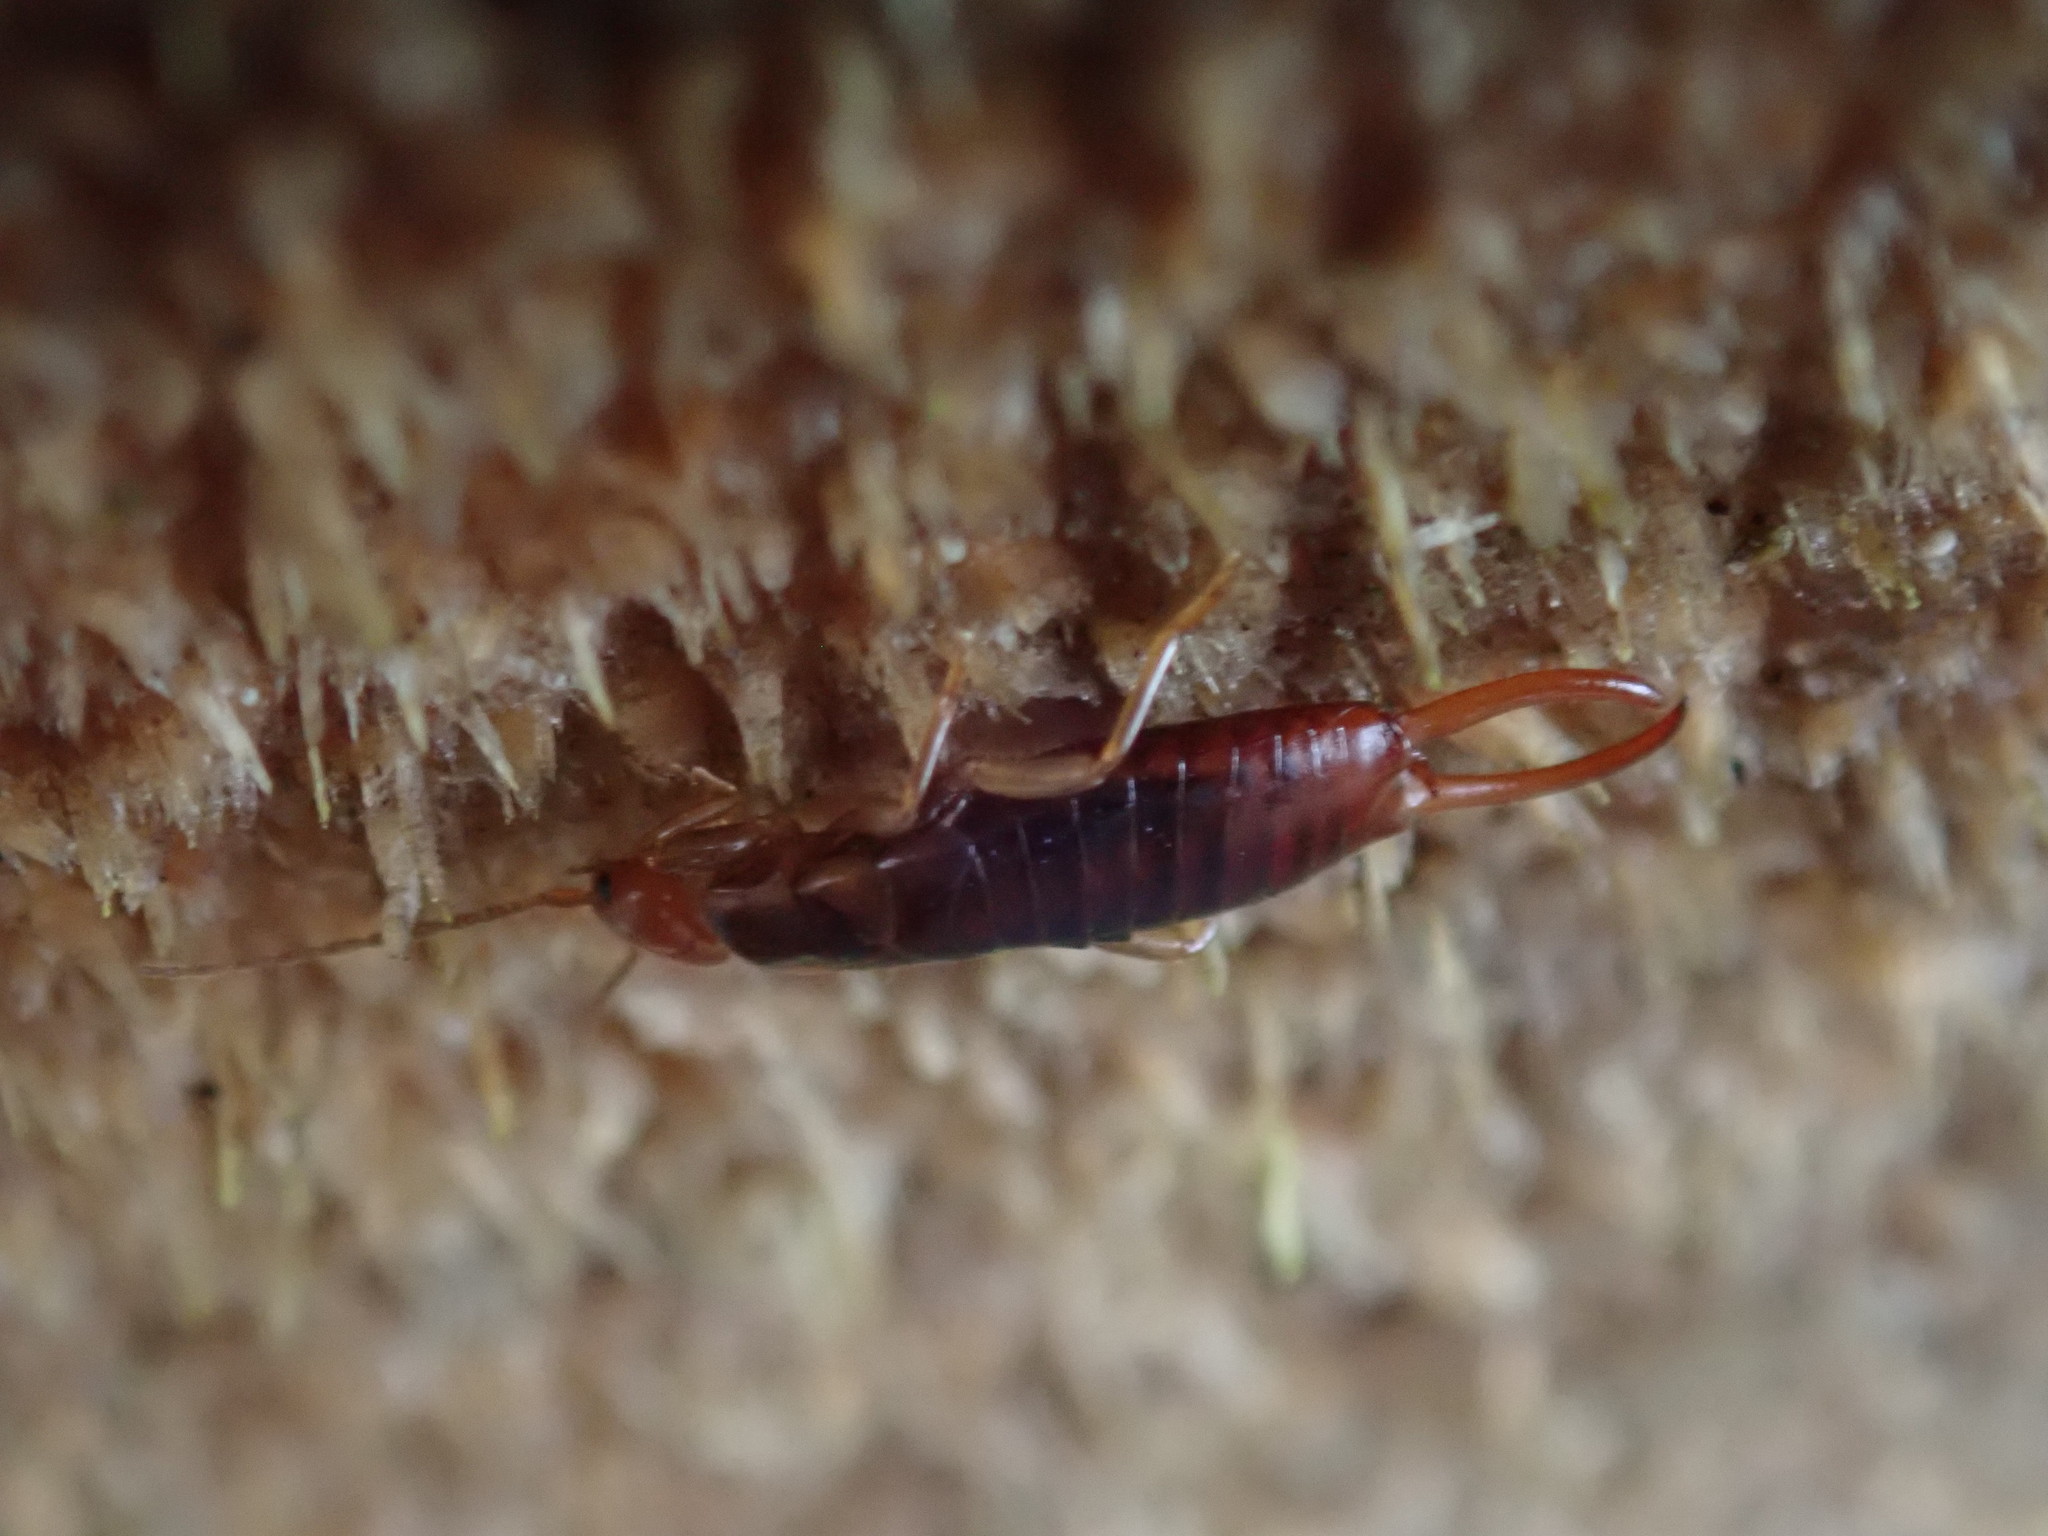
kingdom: Animalia
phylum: Arthropoda
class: Insecta
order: Dermaptera
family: Forficulidae
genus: Chelidurella
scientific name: Chelidurella acanthopygia
